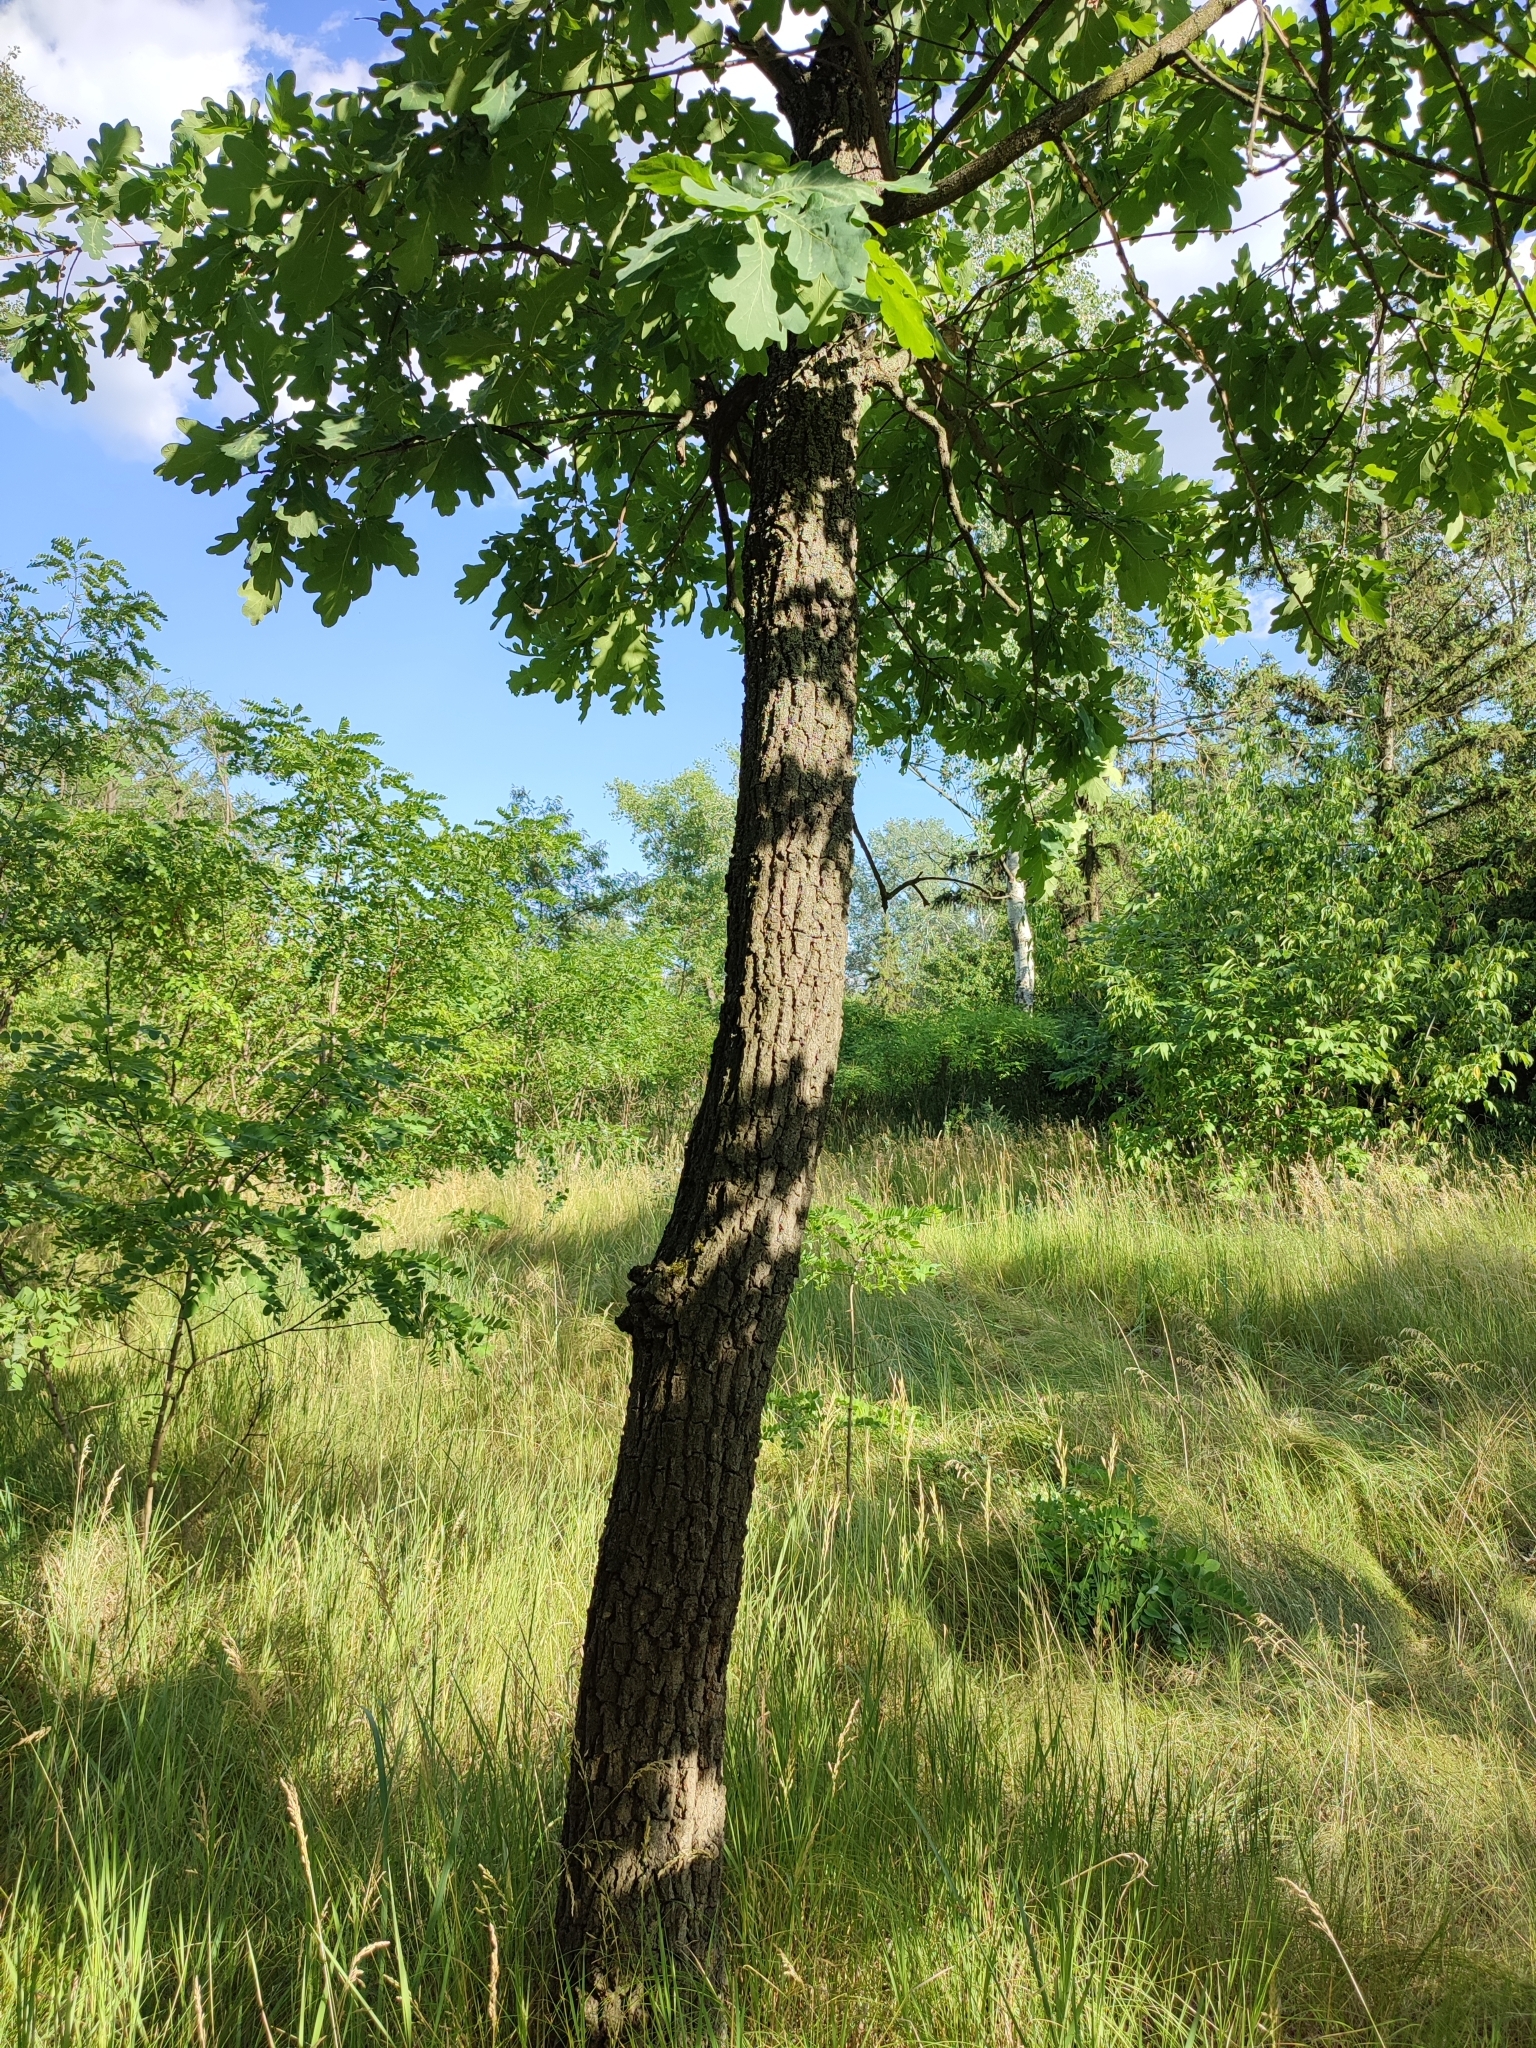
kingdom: Plantae
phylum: Tracheophyta
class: Magnoliopsida
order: Fagales
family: Fagaceae
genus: Quercus
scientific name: Quercus robur
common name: Pedunculate oak
